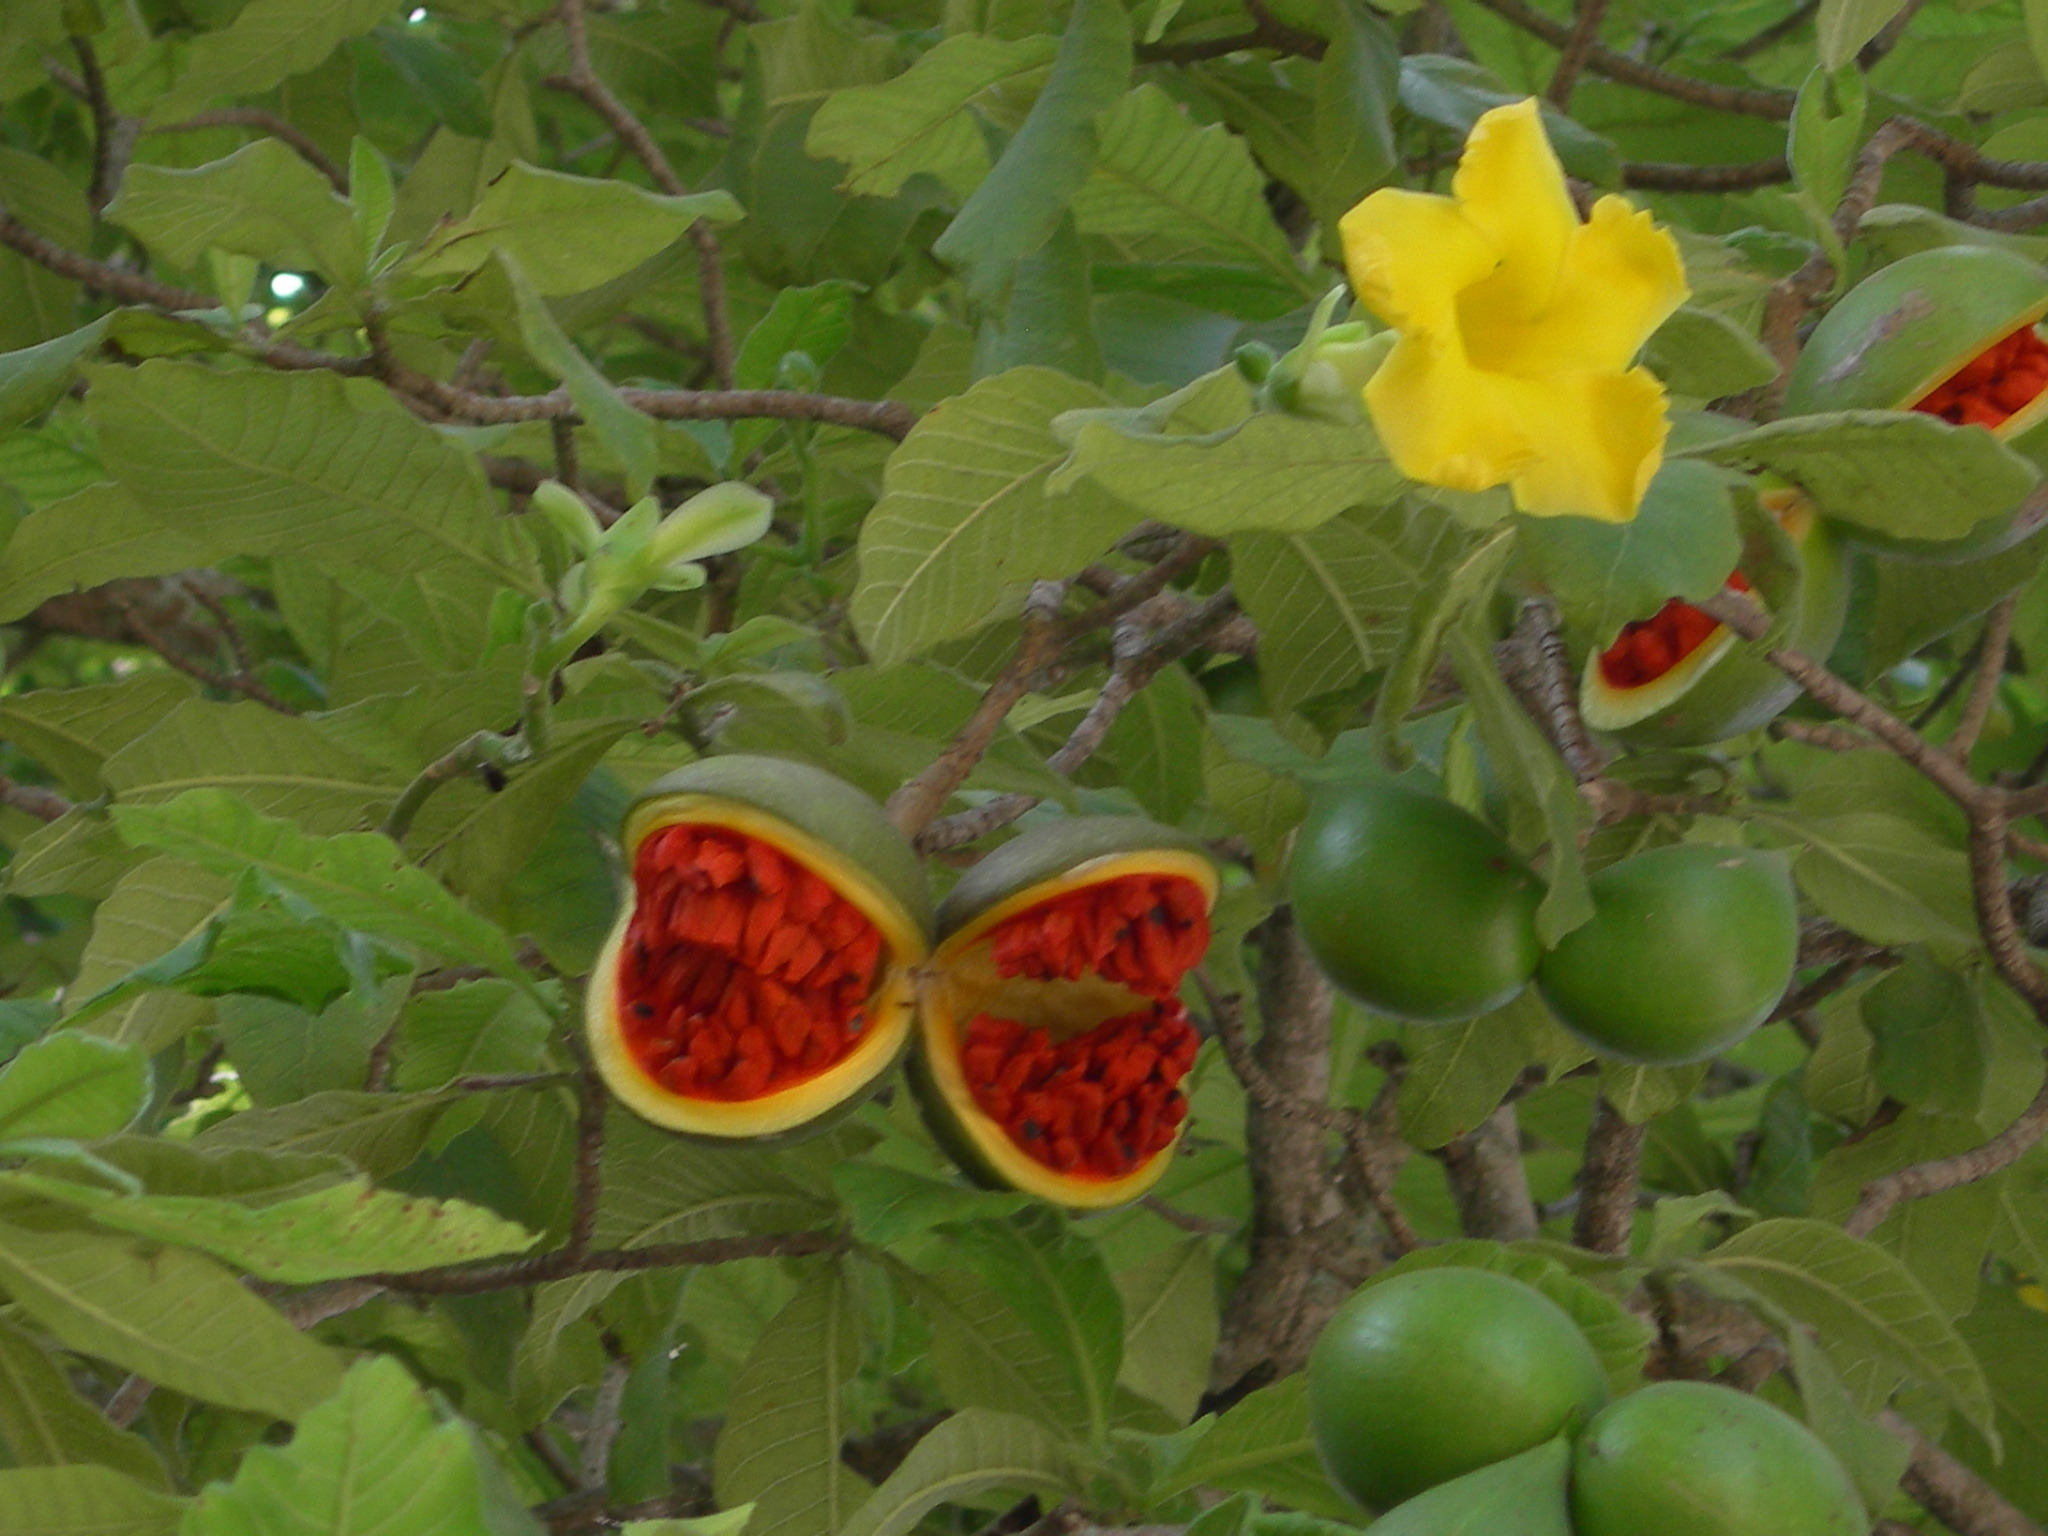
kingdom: Plantae
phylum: Tracheophyta
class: Magnoliopsida
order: Gentianales
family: Apocynaceae
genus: Tabernaemontana
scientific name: Tabernaemontana glabra
